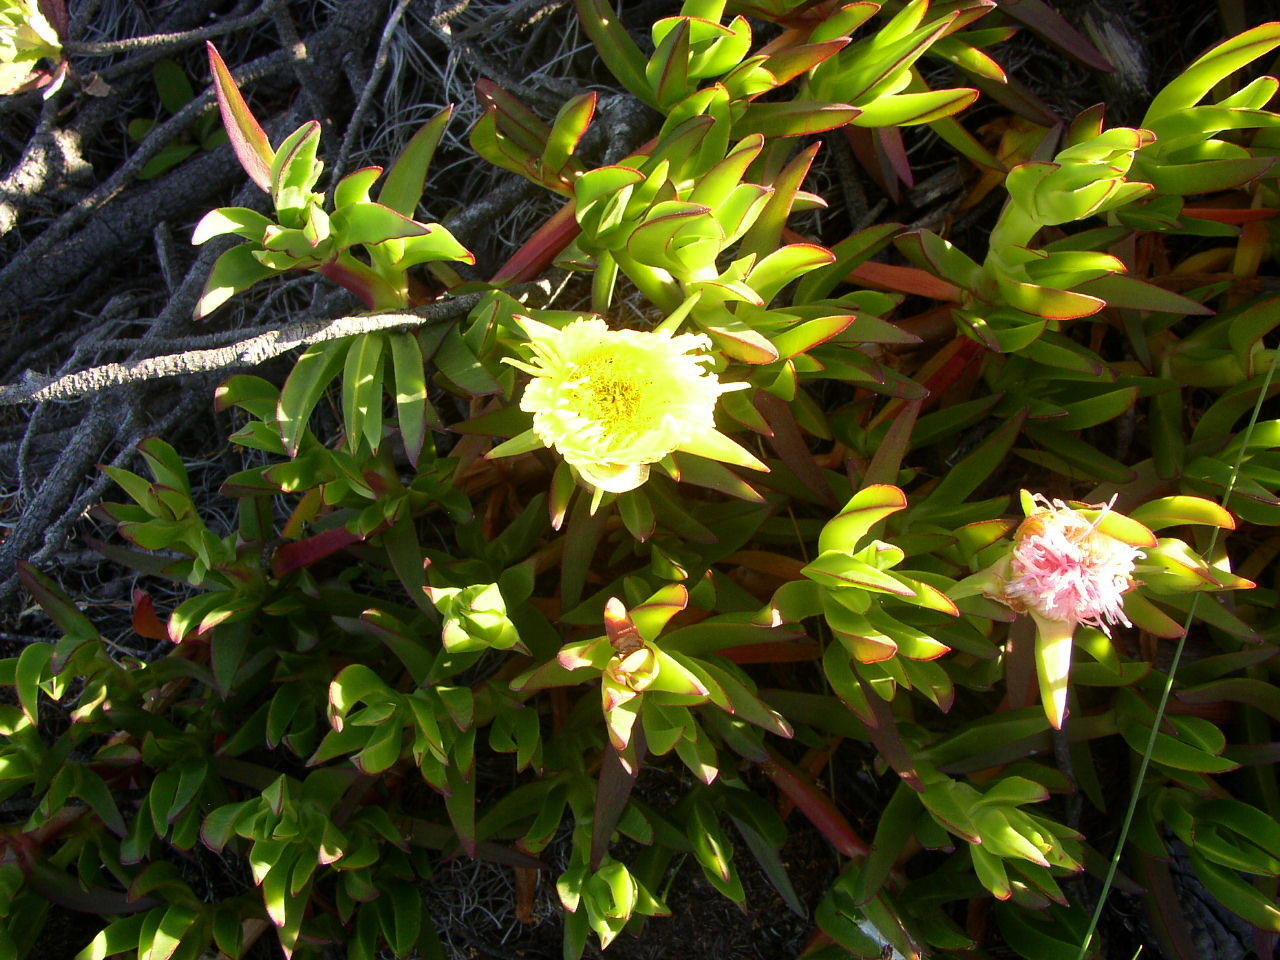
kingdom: Plantae
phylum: Tracheophyta
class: Magnoliopsida
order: Caryophyllales
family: Aizoaceae
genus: Carpobrotus
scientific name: Carpobrotus edulis
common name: Hottentot-fig
